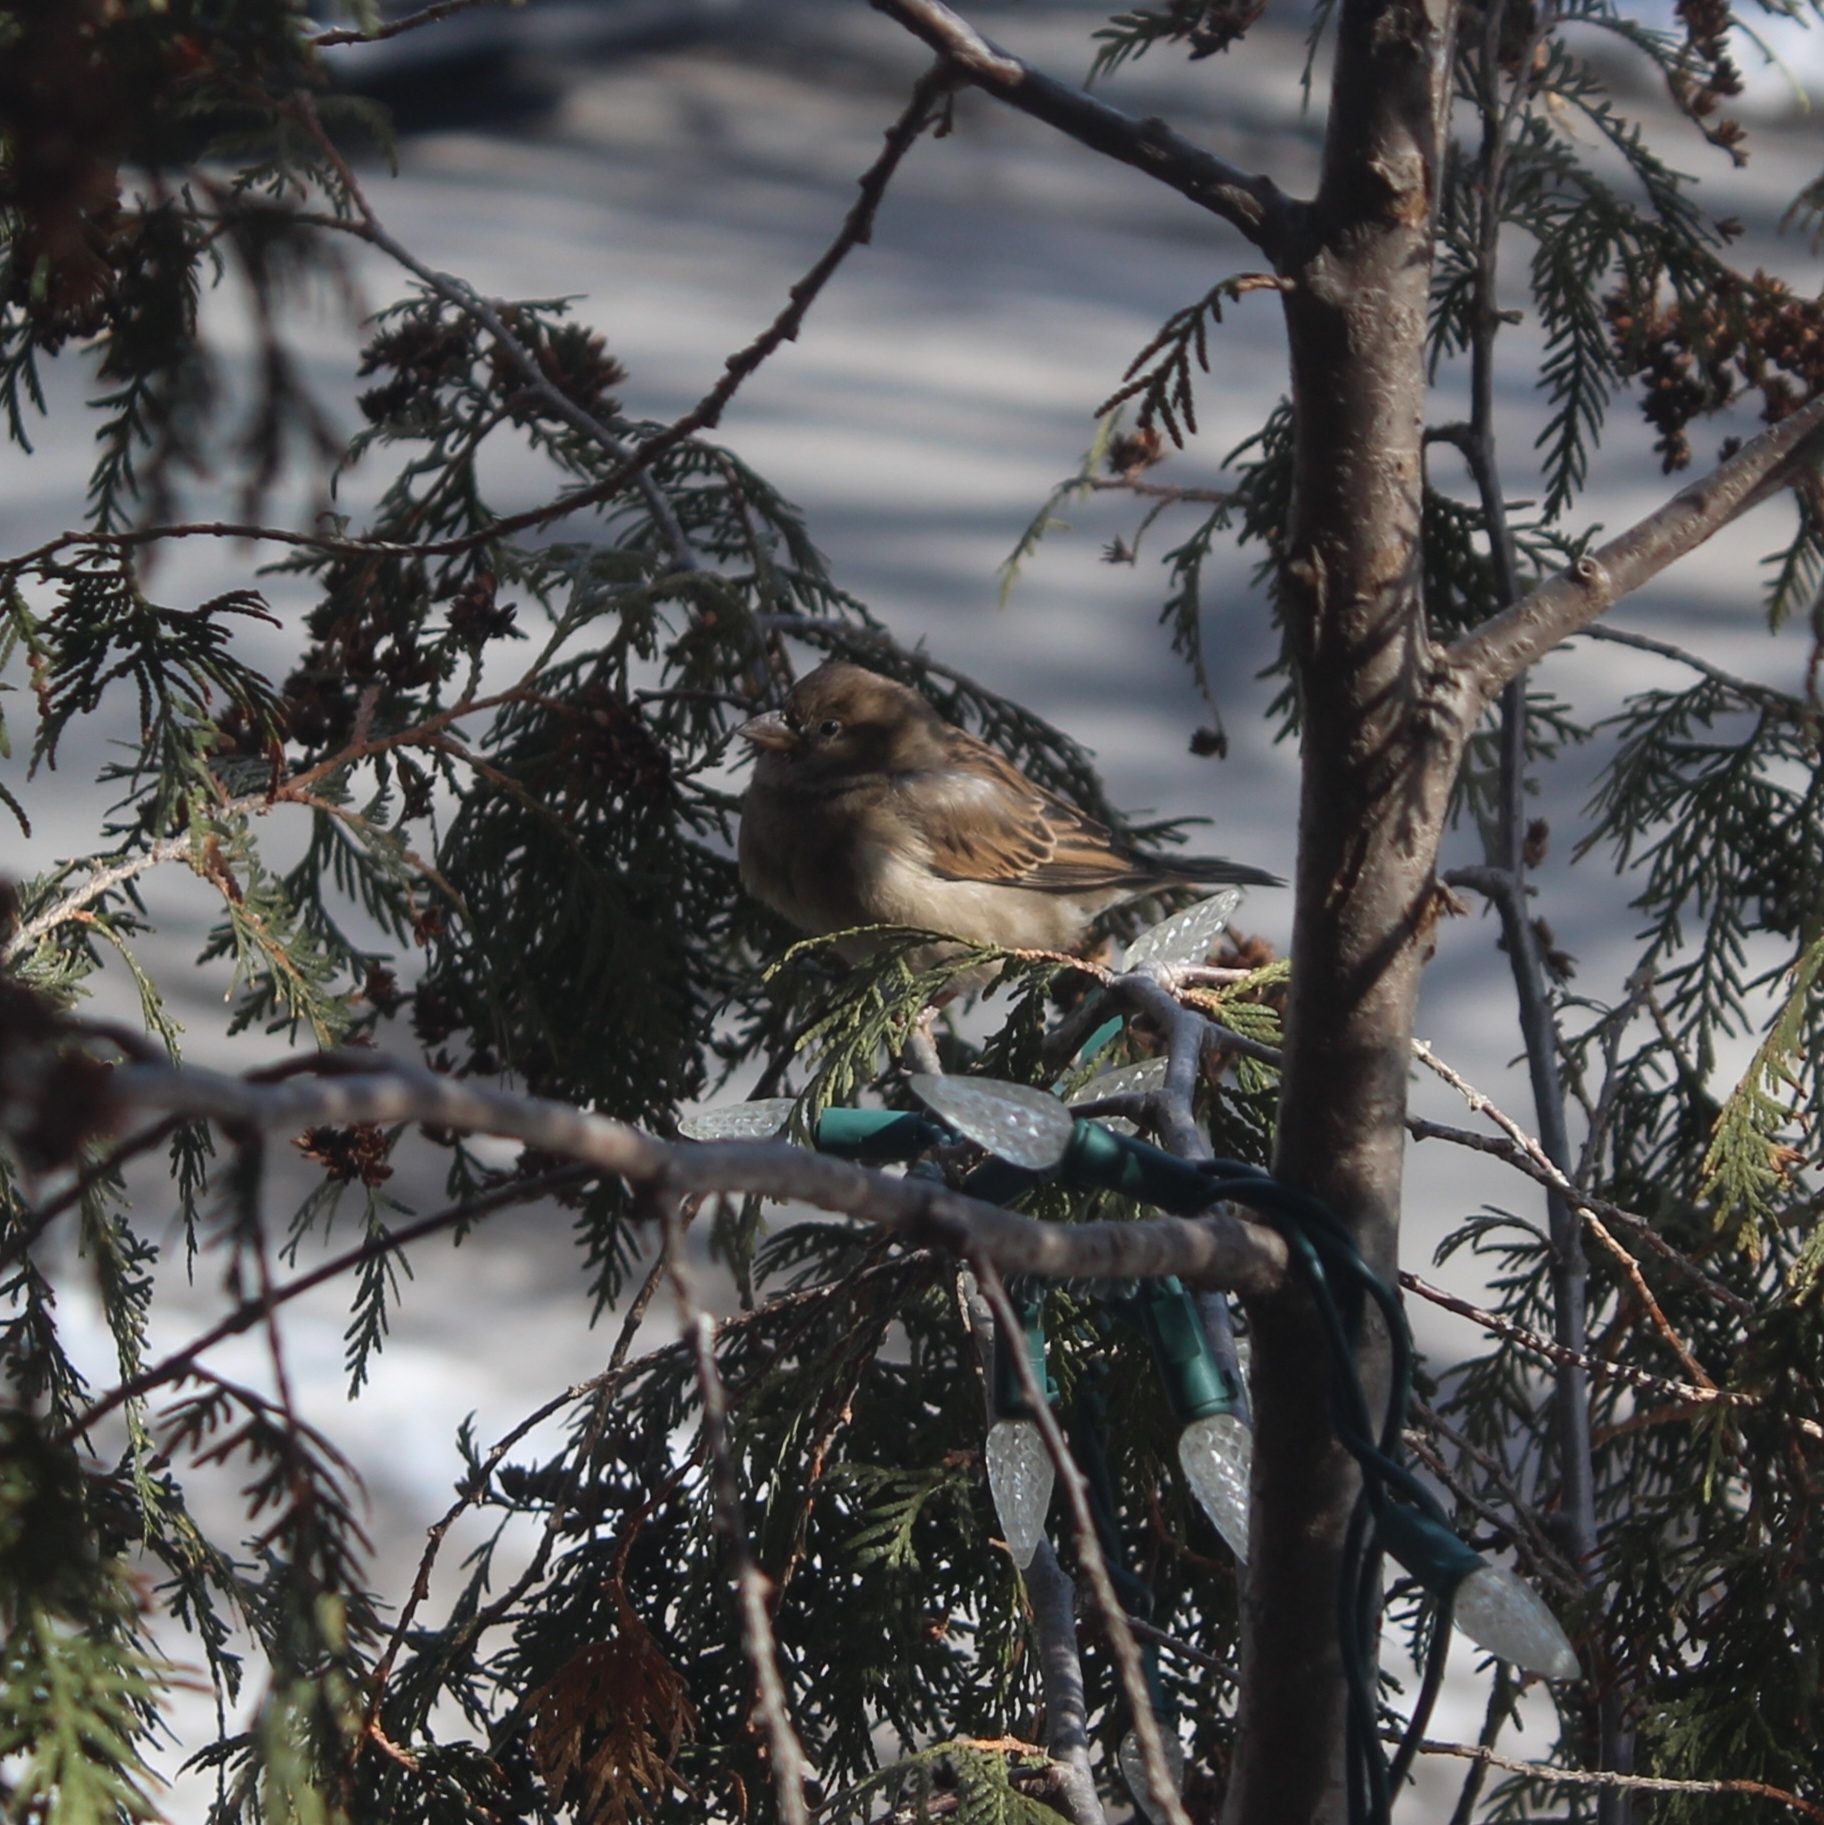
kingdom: Animalia
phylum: Chordata
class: Aves
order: Passeriformes
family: Passeridae
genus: Passer
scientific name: Passer domesticus
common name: House sparrow
